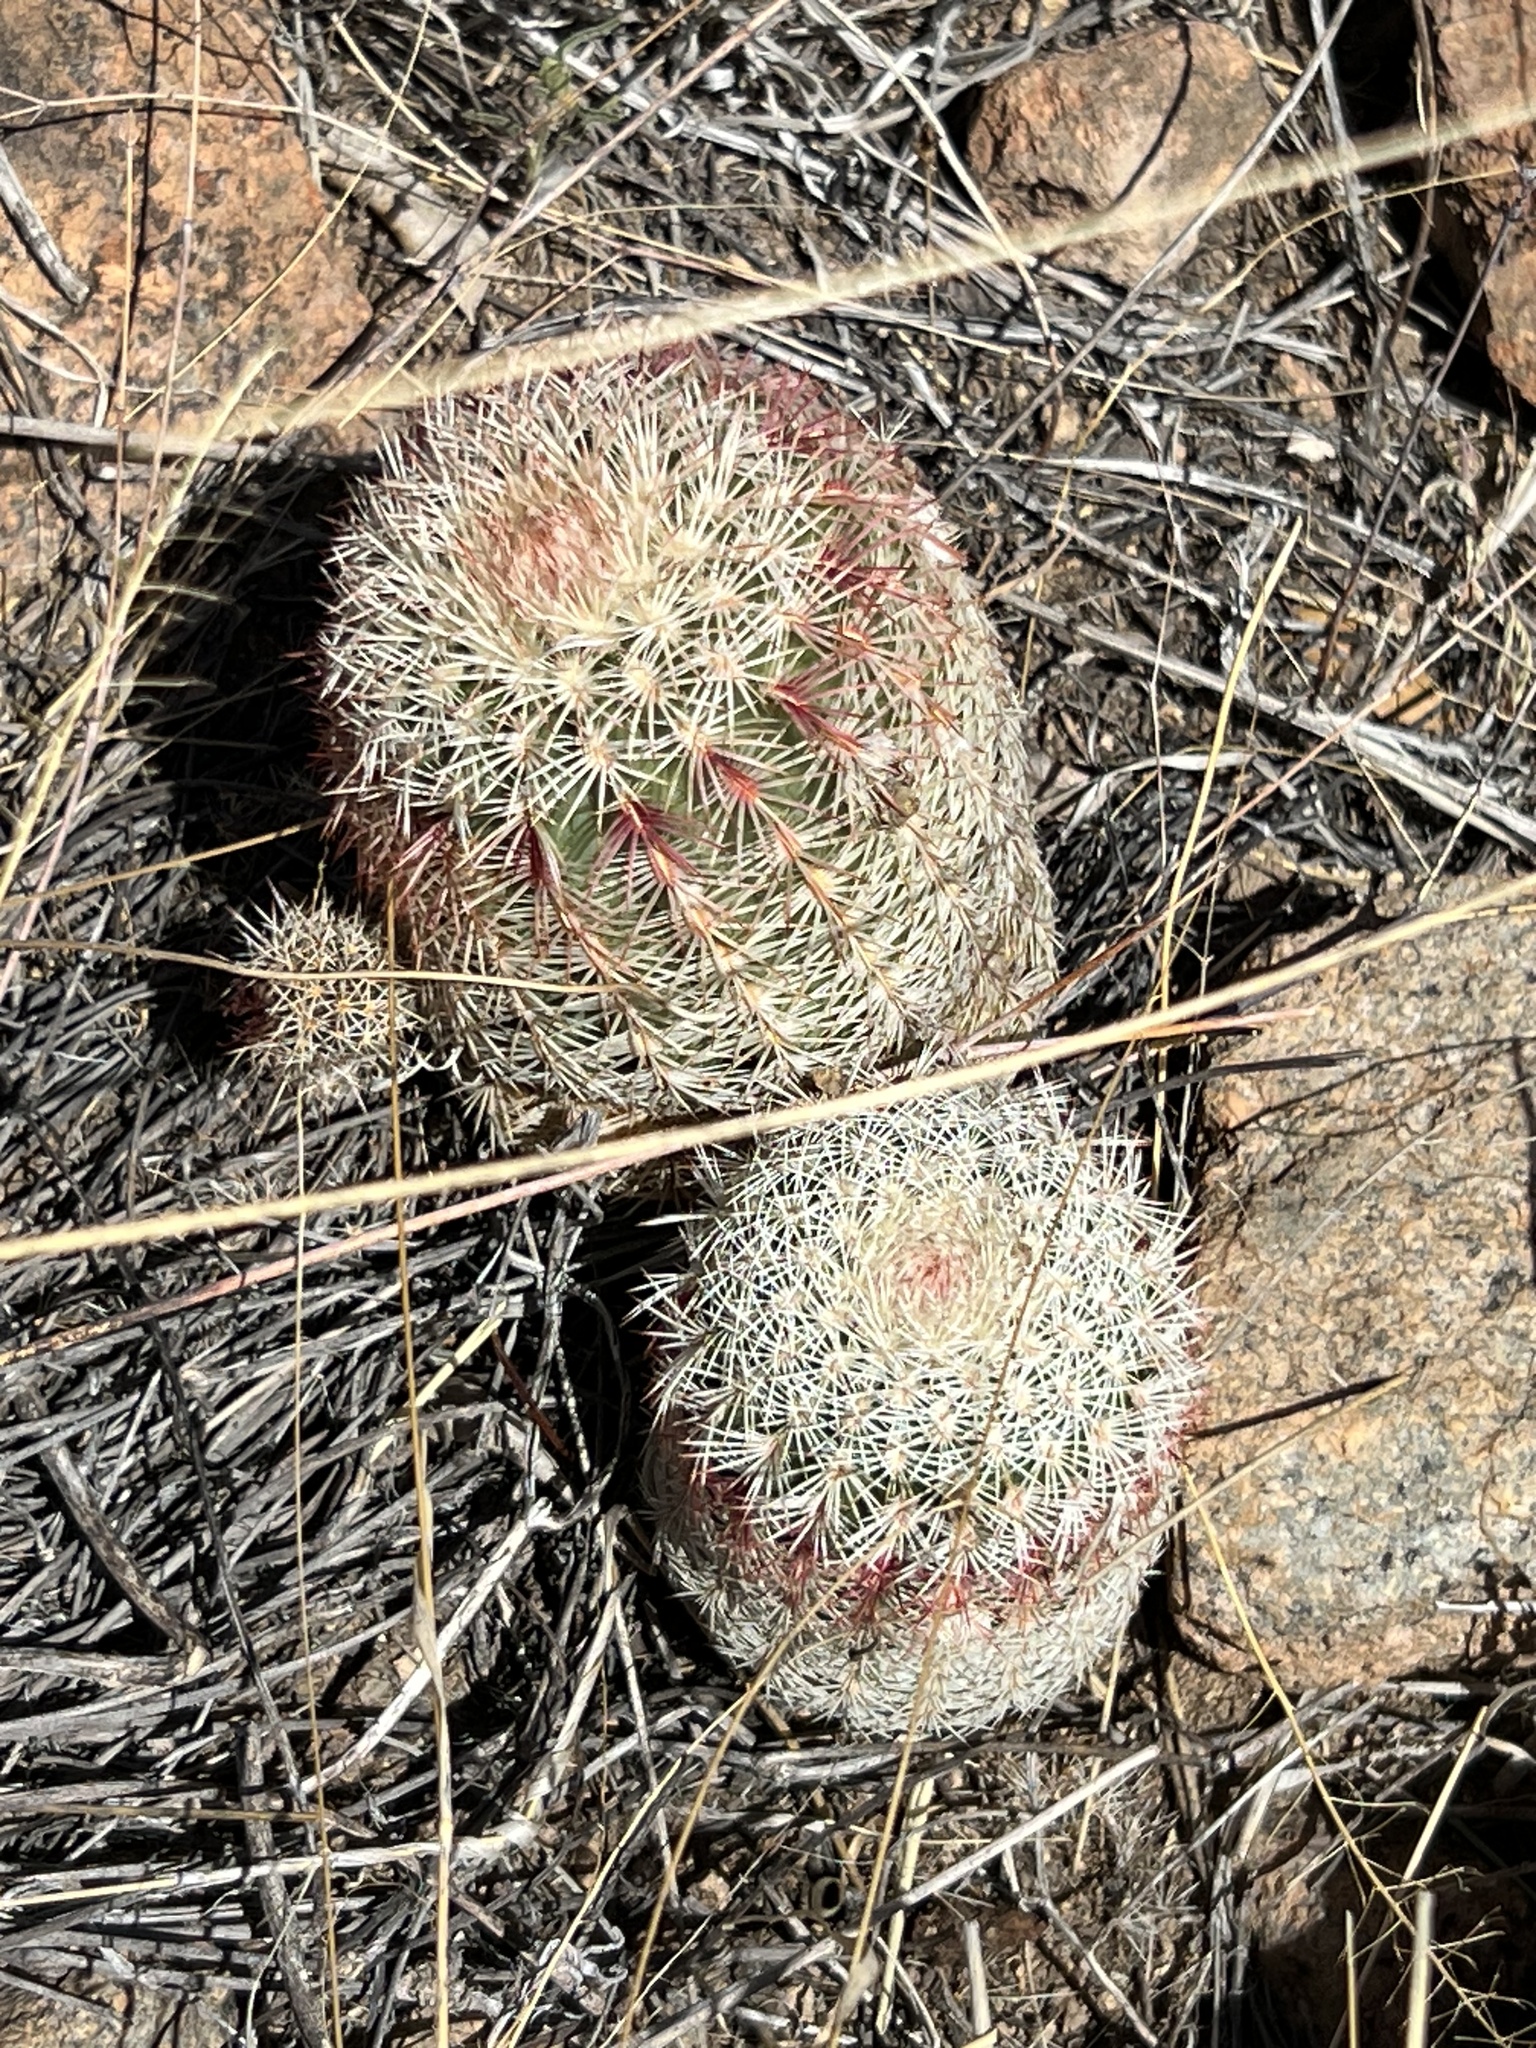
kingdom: Plantae
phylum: Tracheophyta
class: Magnoliopsida
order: Caryophyllales
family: Cactaceae
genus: Echinocereus
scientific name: Echinocereus rigidissimus
